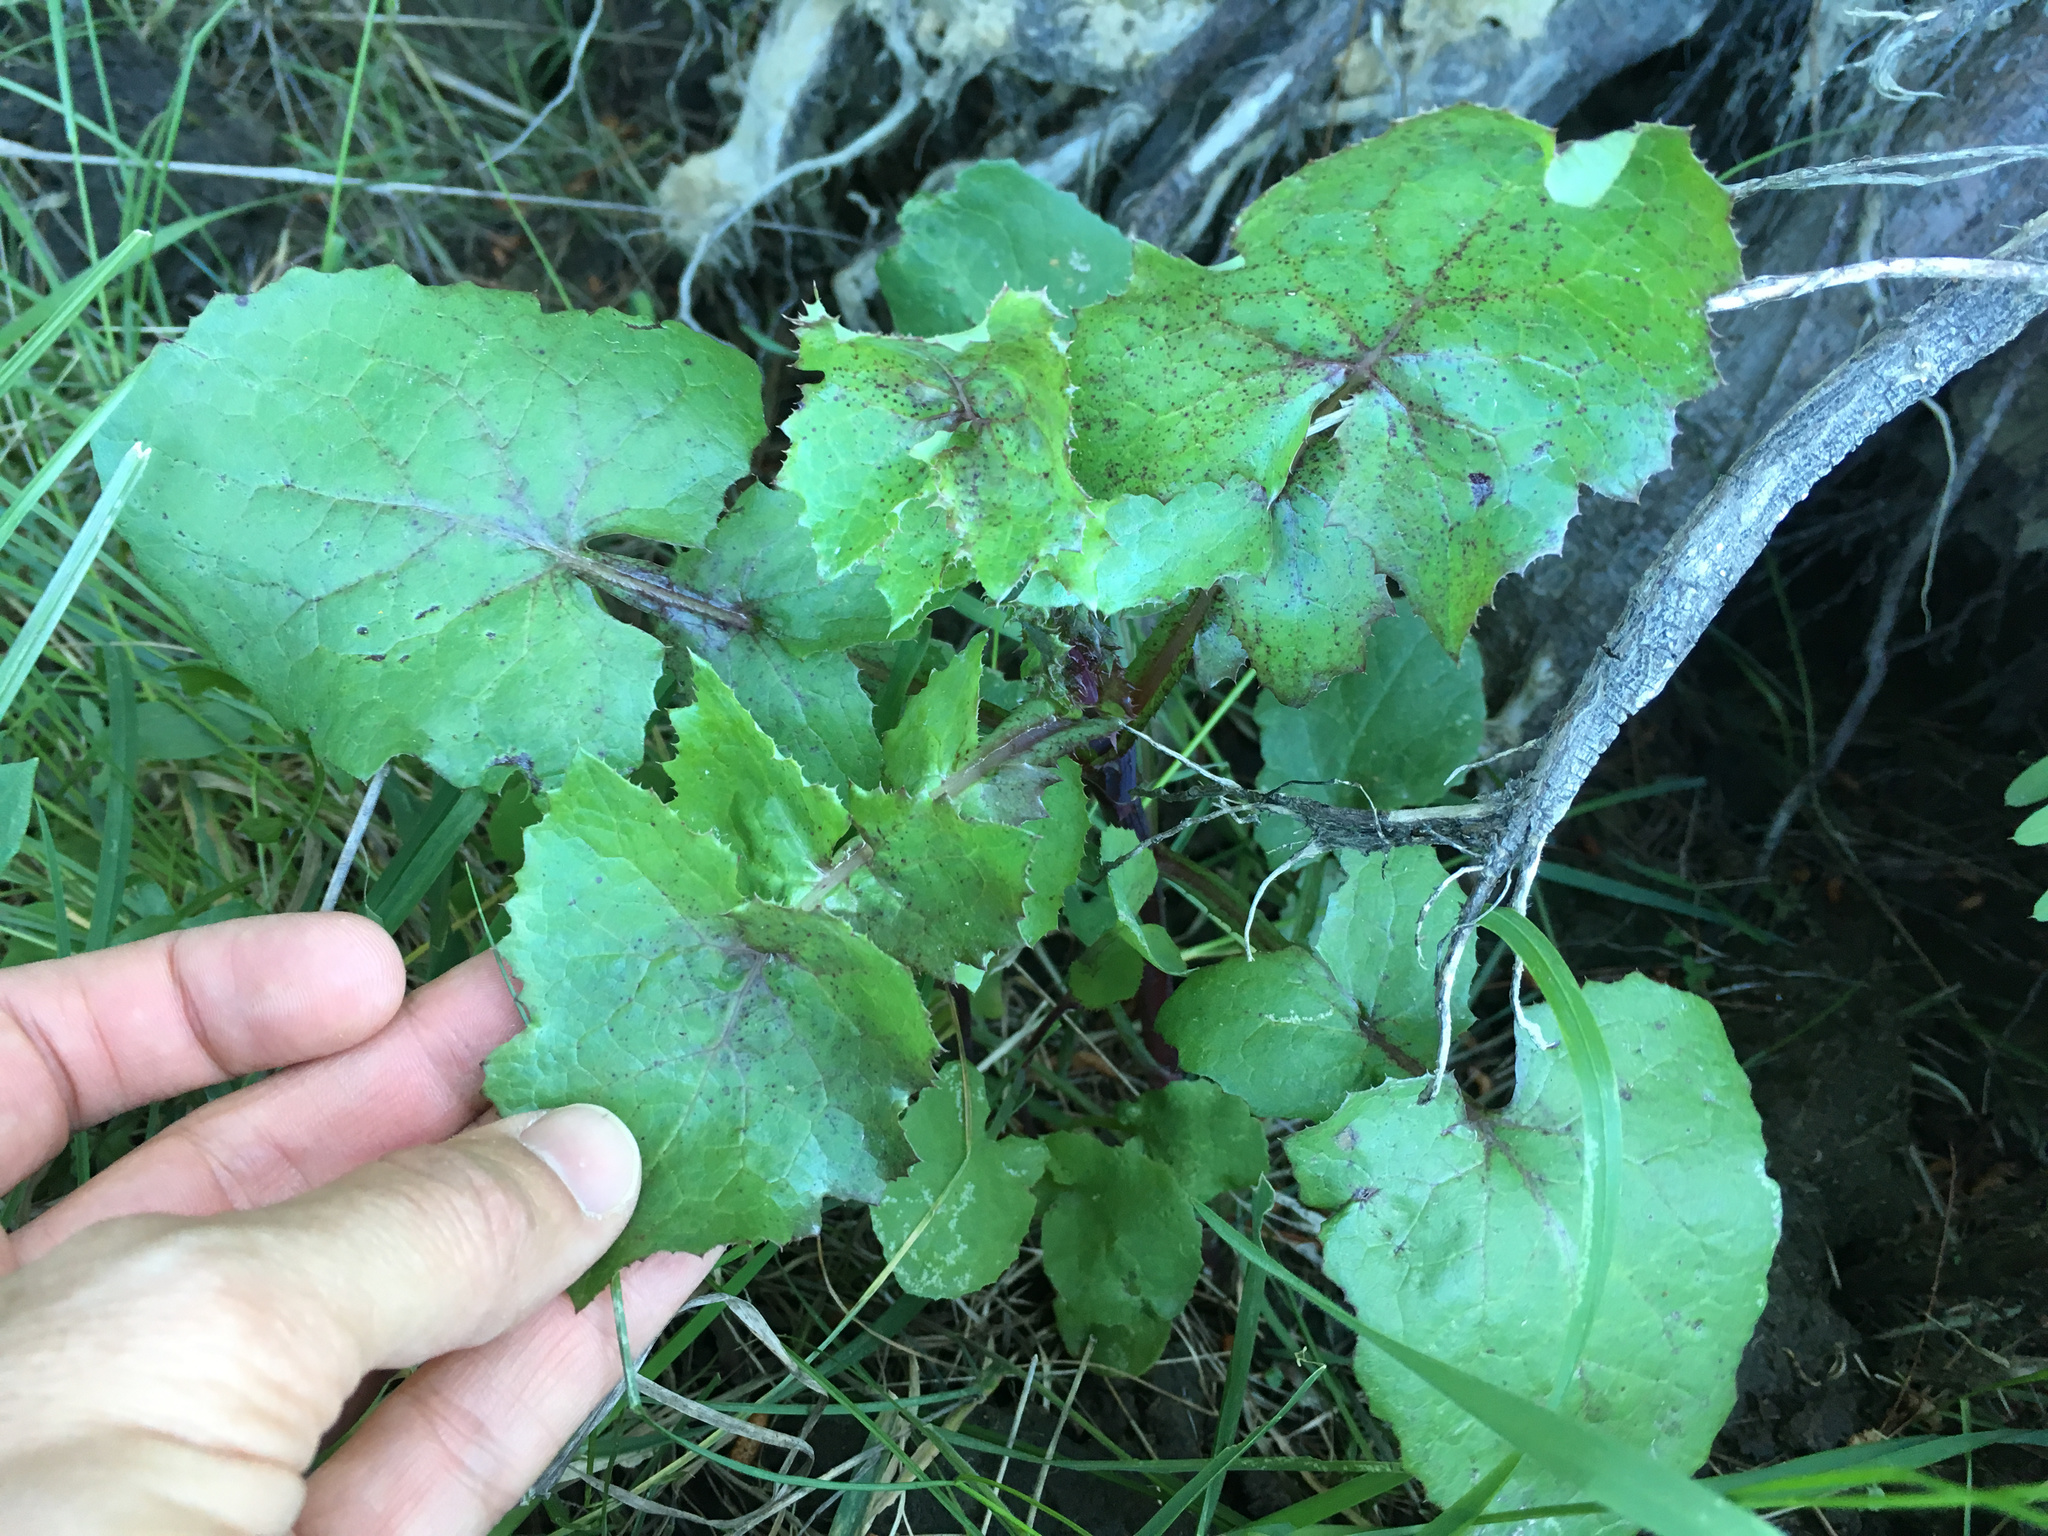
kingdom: Plantae
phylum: Tracheophyta
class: Magnoliopsida
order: Asterales
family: Asteraceae
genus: Sonchus
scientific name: Sonchus oleraceus
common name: Common sowthistle
